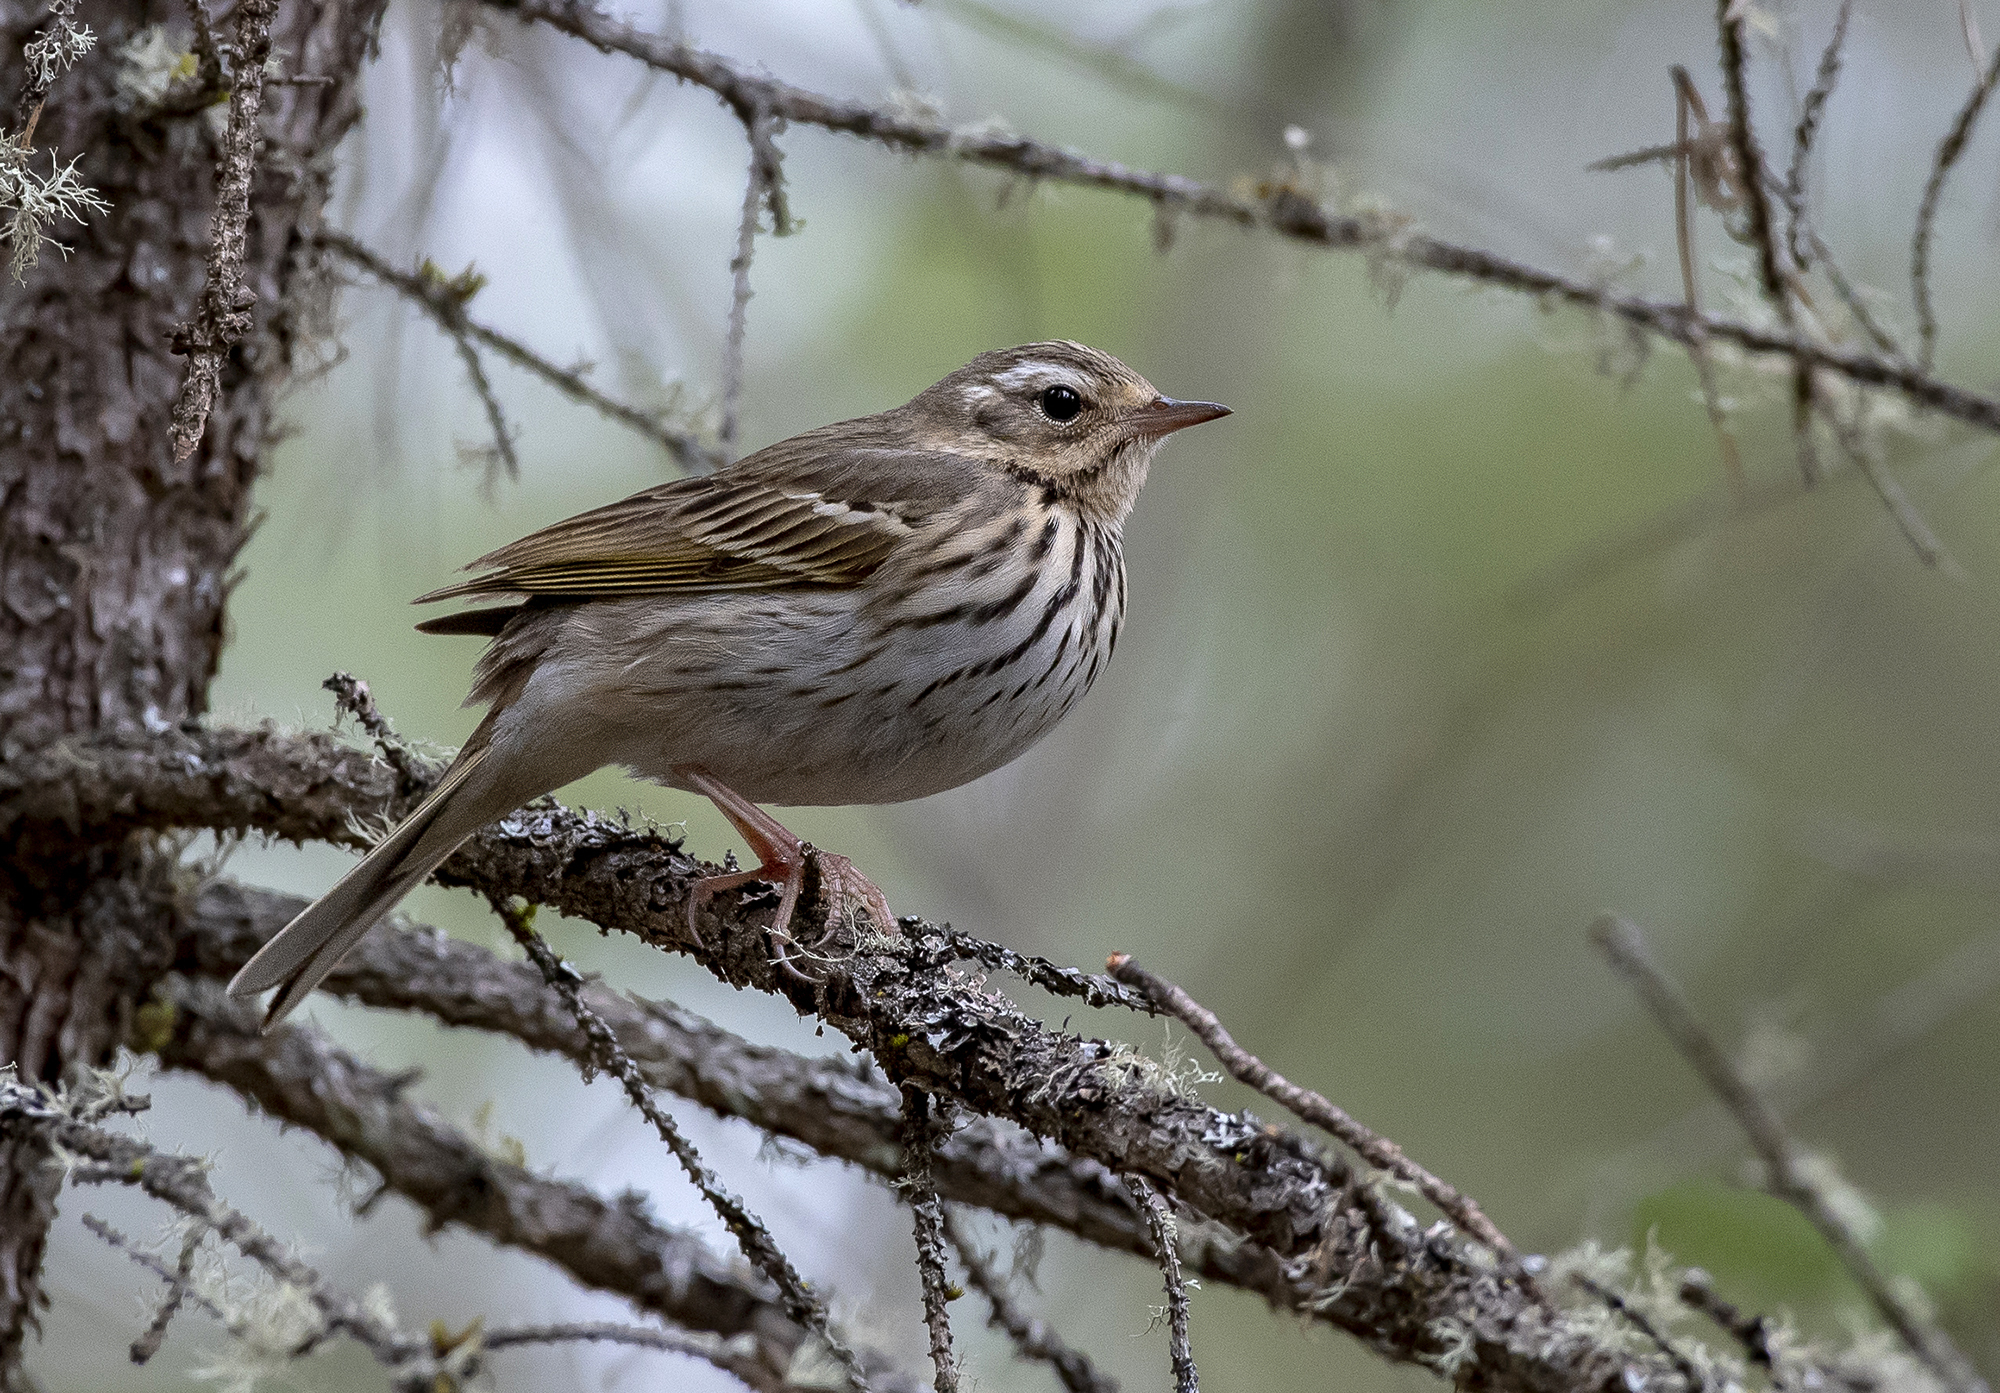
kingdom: Animalia
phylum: Chordata
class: Aves
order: Passeriformes
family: Motacillidae
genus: Anthus
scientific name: Anthus hodgsoni
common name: Olive-backed pipit
